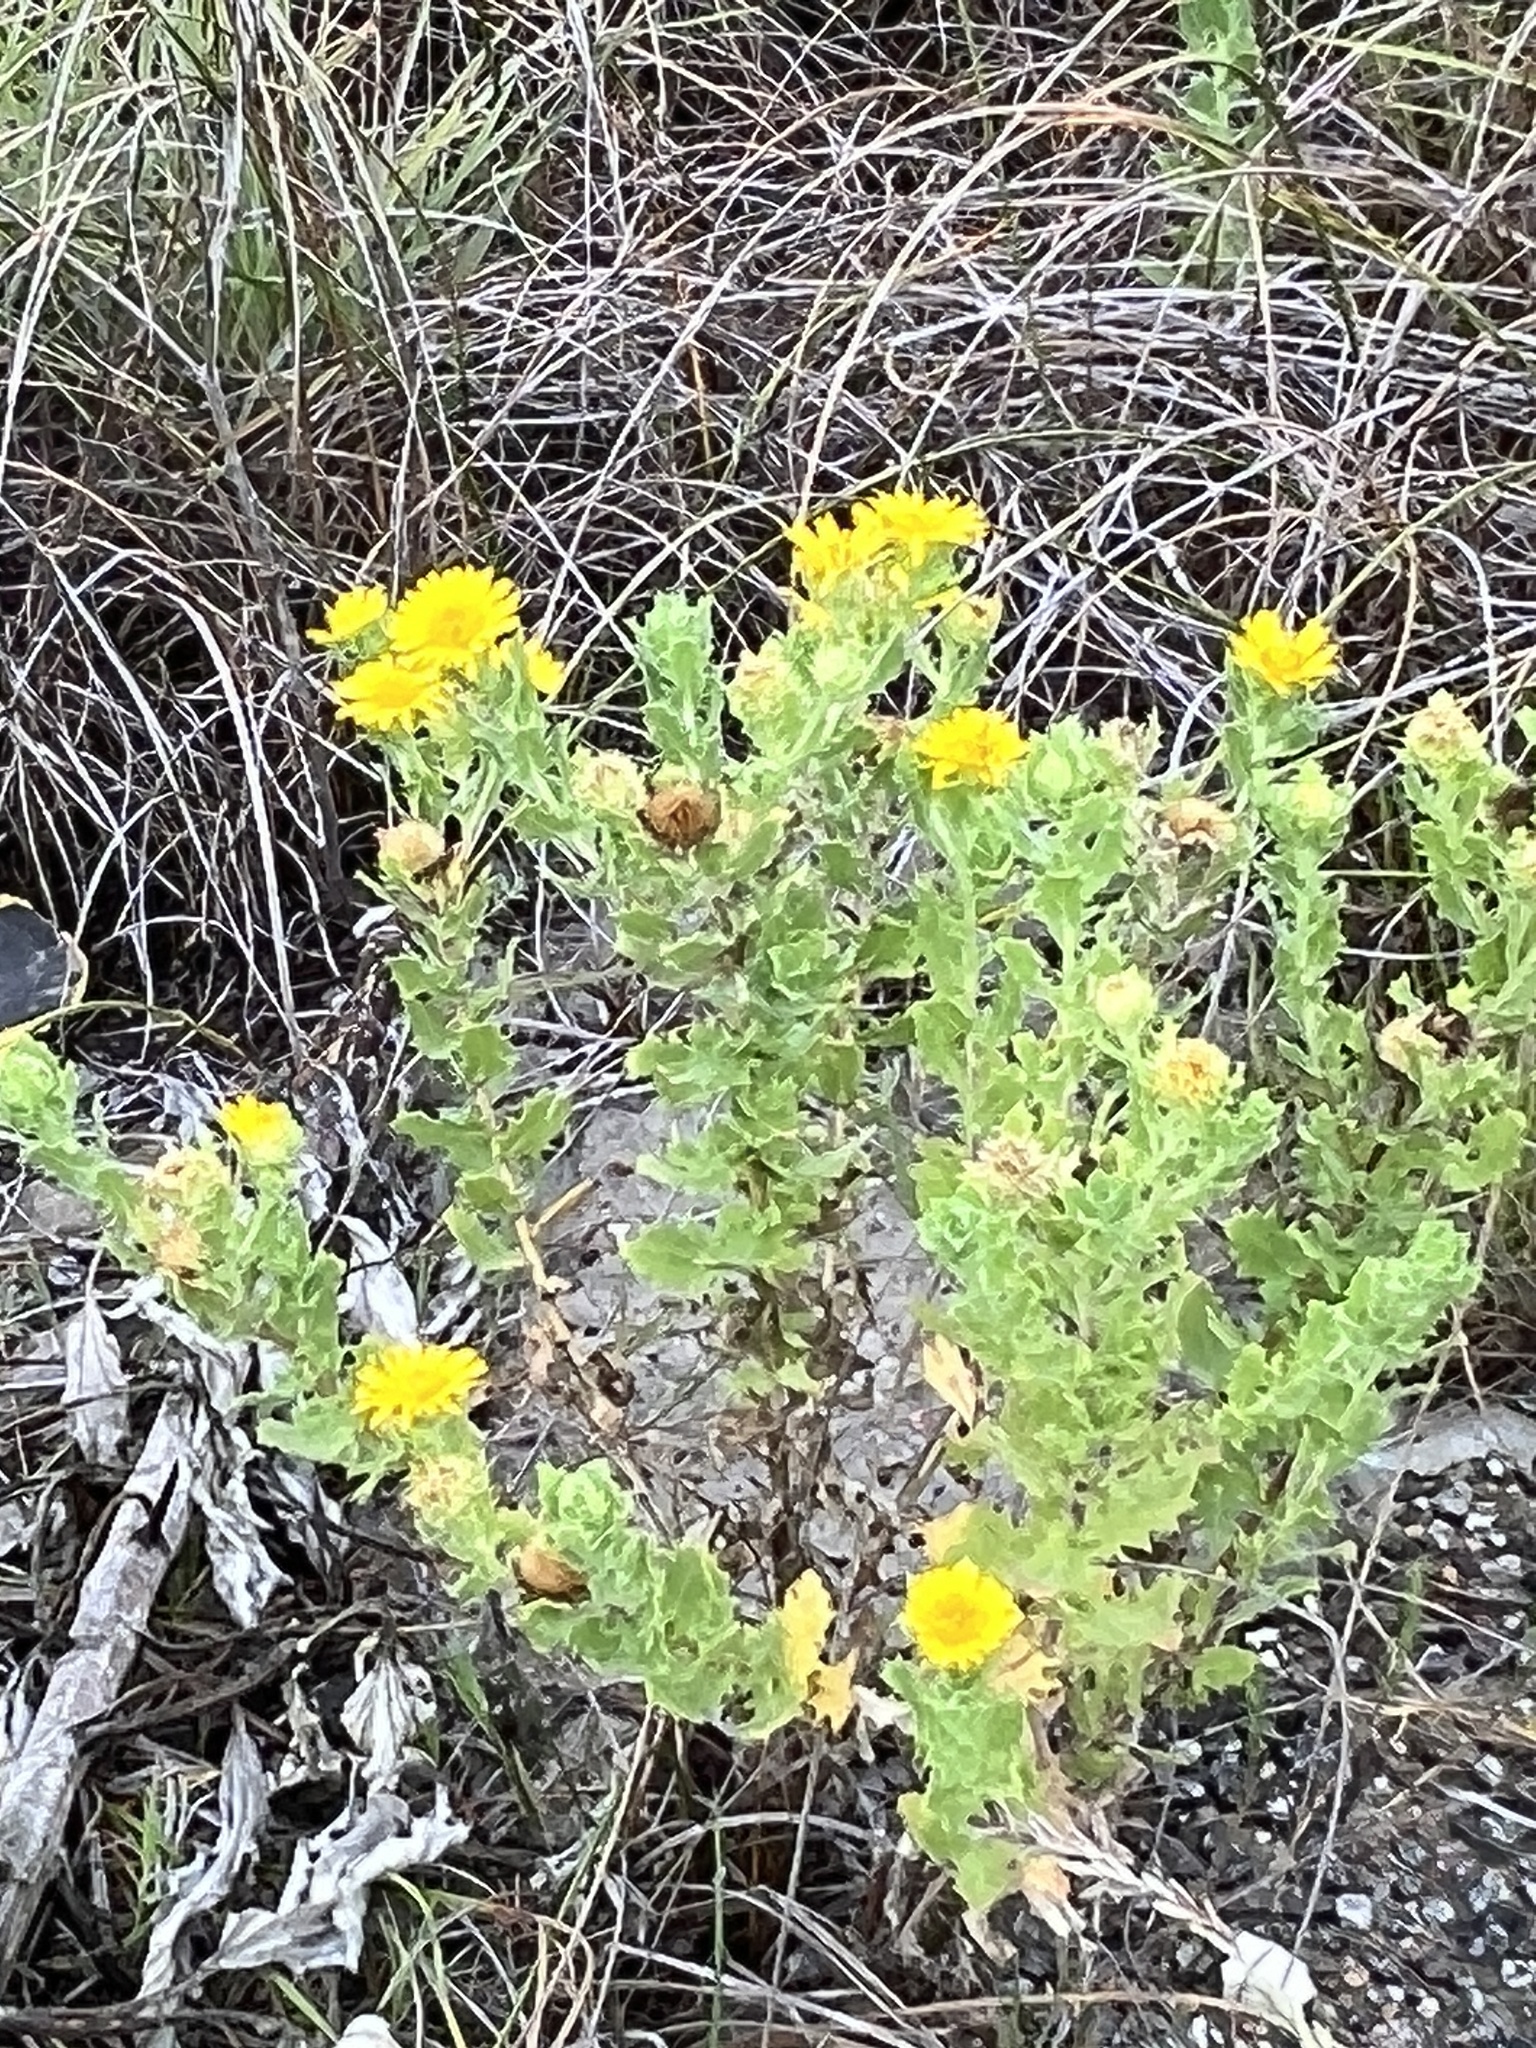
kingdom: Plantae
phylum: Tracheophyta
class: Magnoliopsida
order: Asterales
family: Asteraceae
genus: Rayjacksonia
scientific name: Rayjacksonia phyllocephala
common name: Gulf coast camphor daisy
